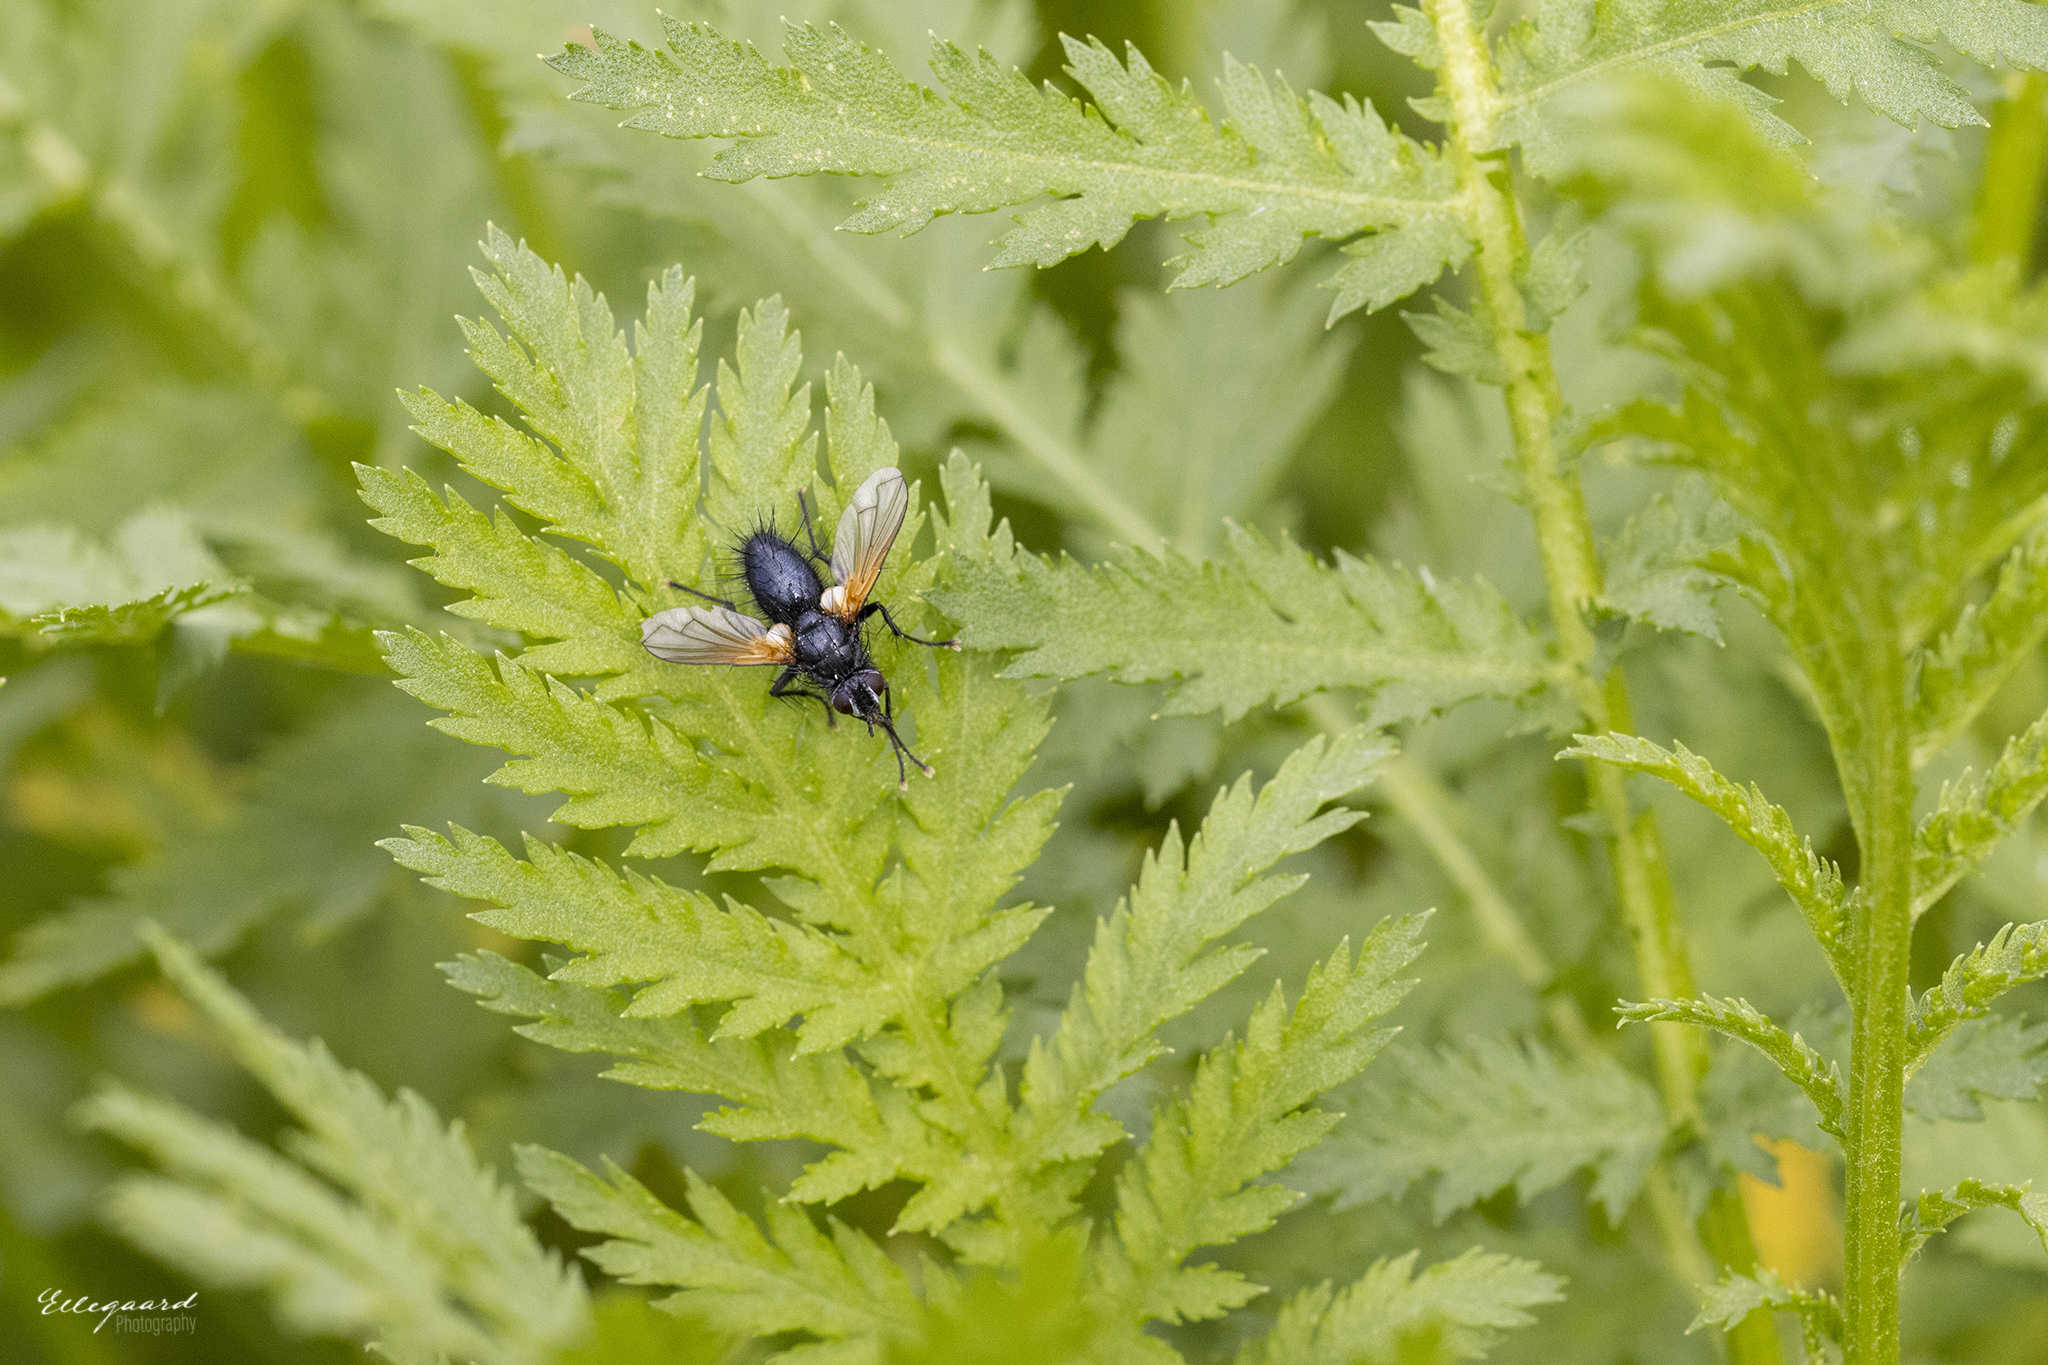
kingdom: Animalia
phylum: Arthropoda
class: Insecta
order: Diptera
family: Tachinidae
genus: Zophomyia
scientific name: Zophomyia temula
